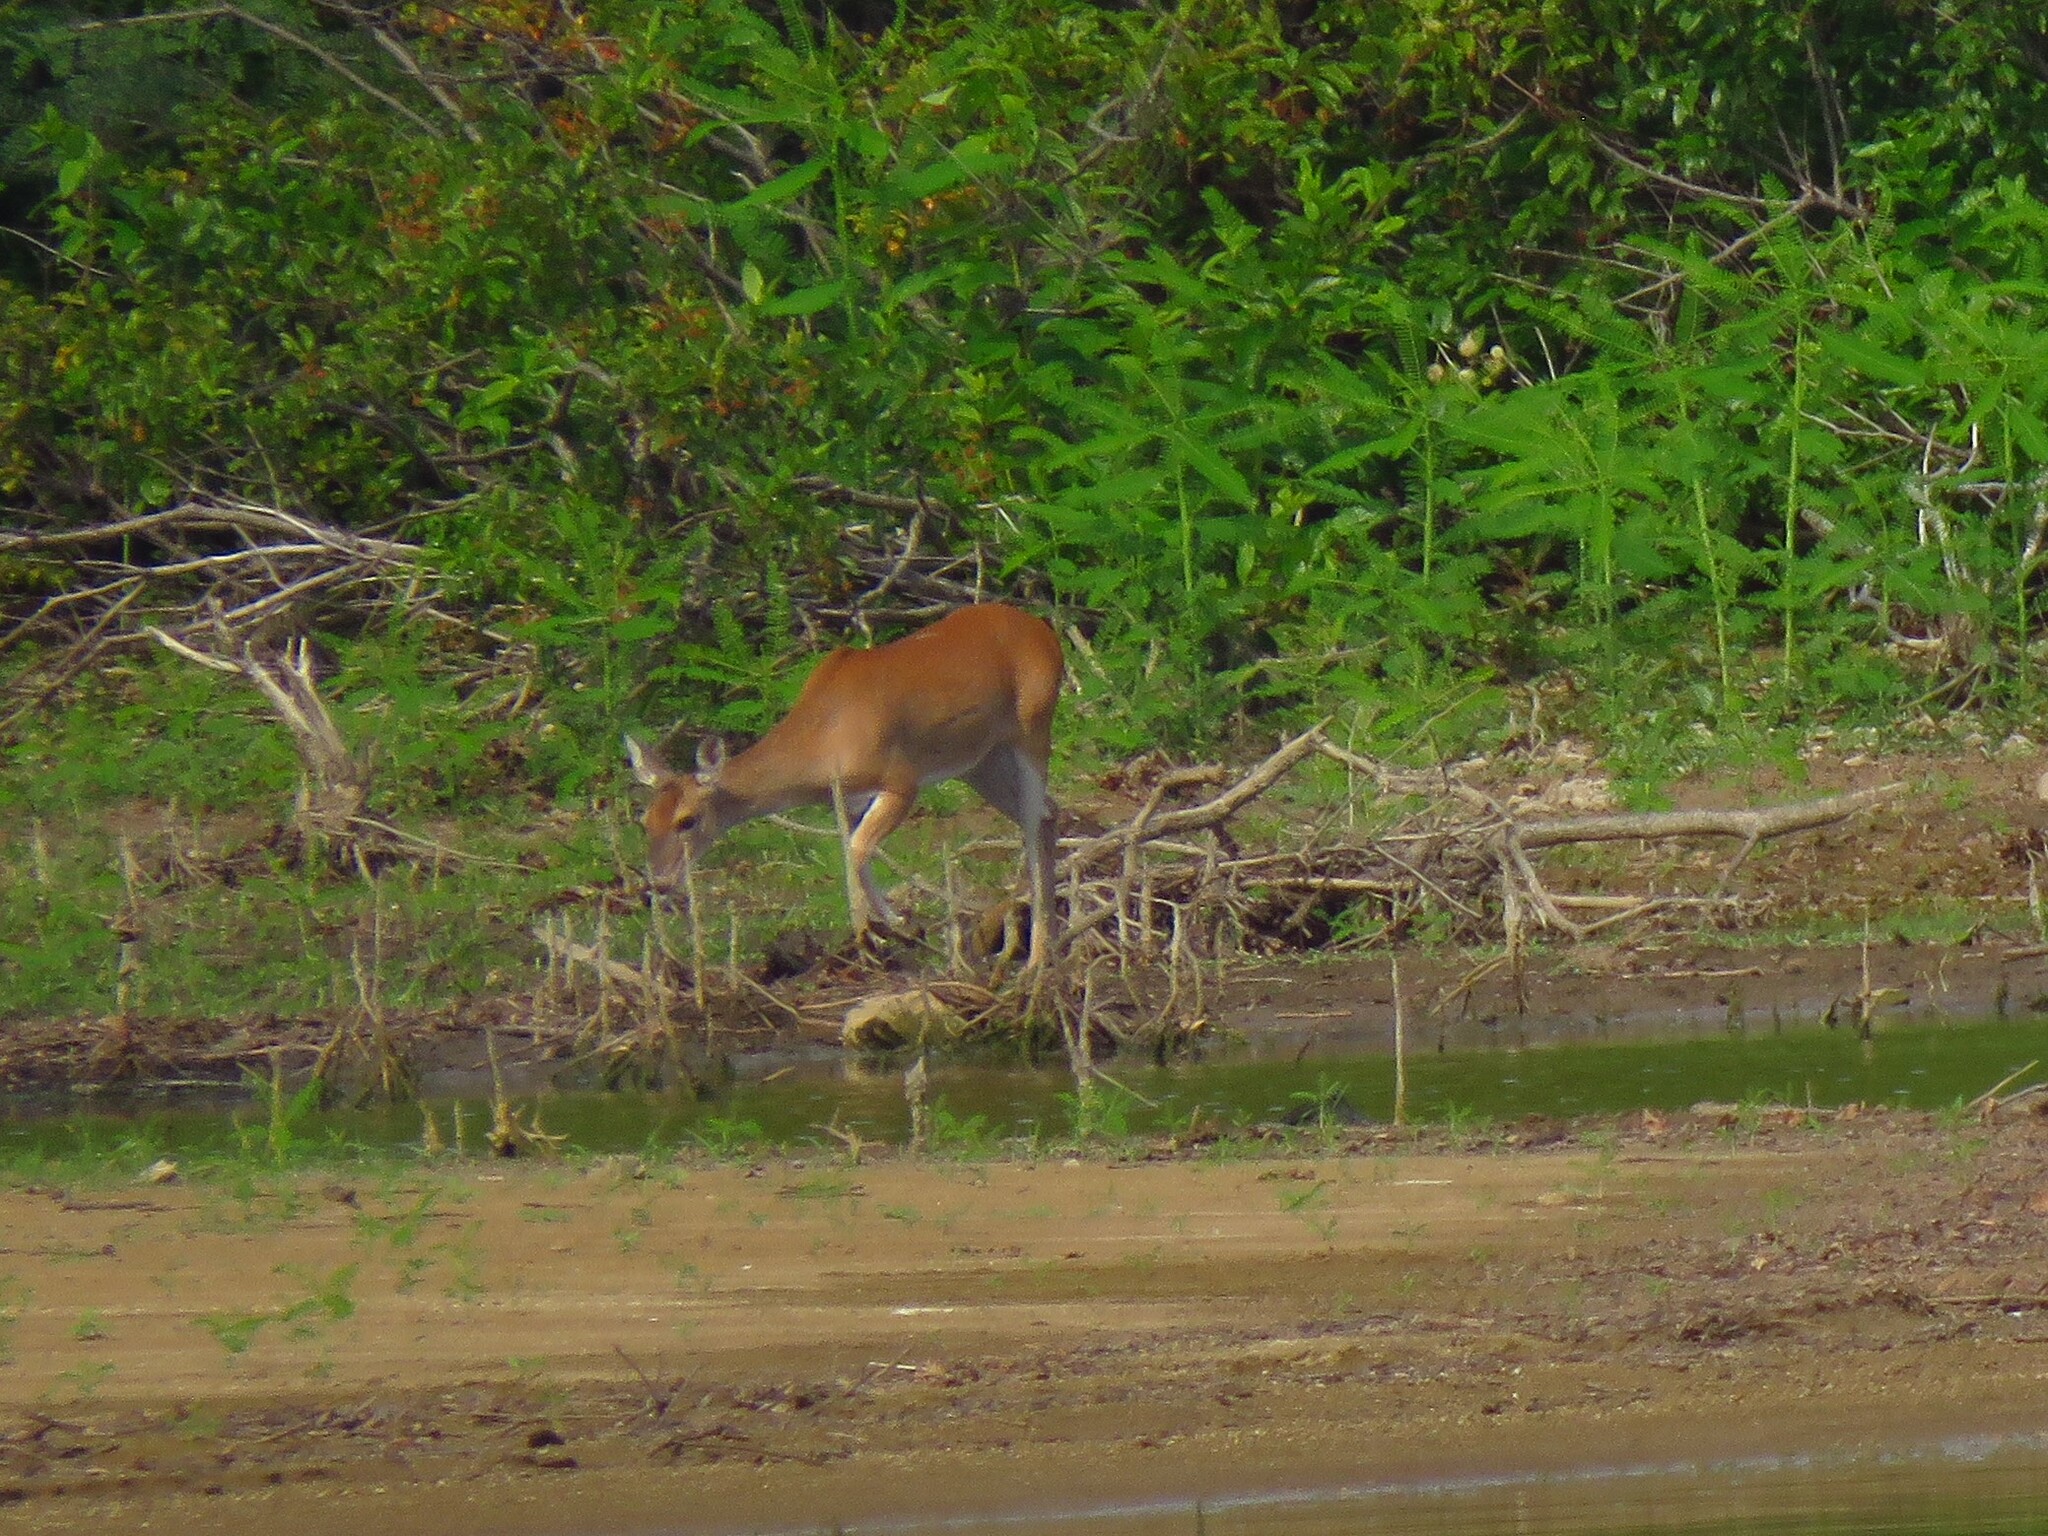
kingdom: Animalia
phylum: Chordata
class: Mammalia
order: Artiodactyla
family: Cervidae
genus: Odocoileus
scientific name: Odocoileus virginianus
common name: White-tailed deer
